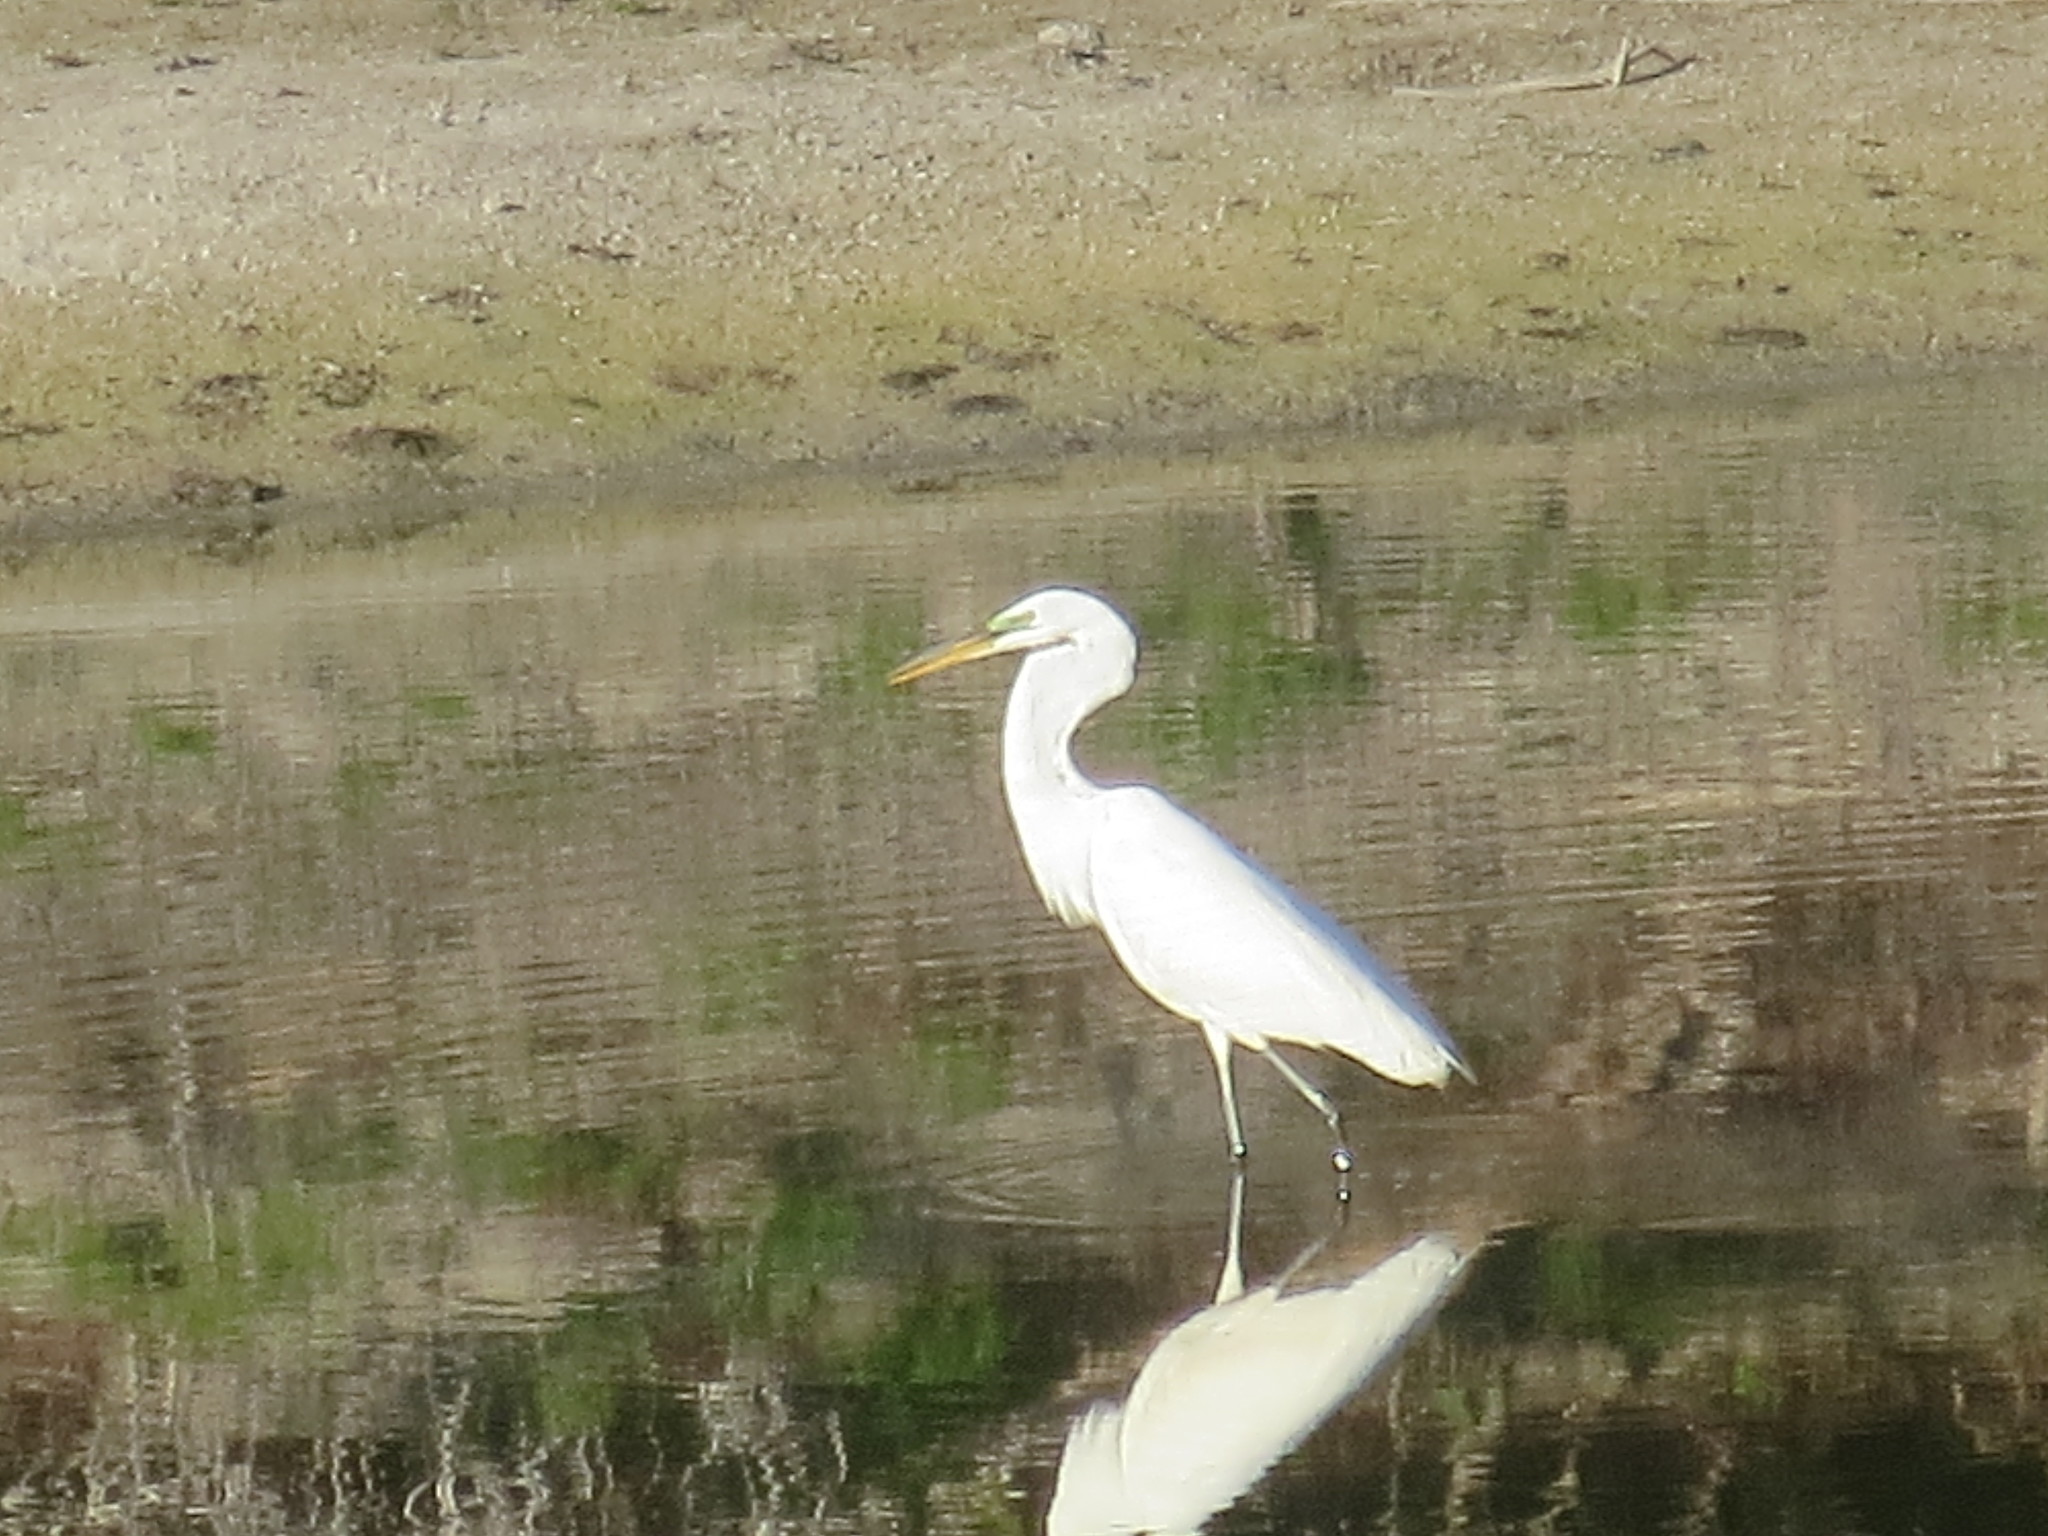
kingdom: Animalia
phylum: Chordata
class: Aves
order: Pelecaniformes
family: Ardeidae
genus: Ardea
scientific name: Ardea alba
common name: Great egret
